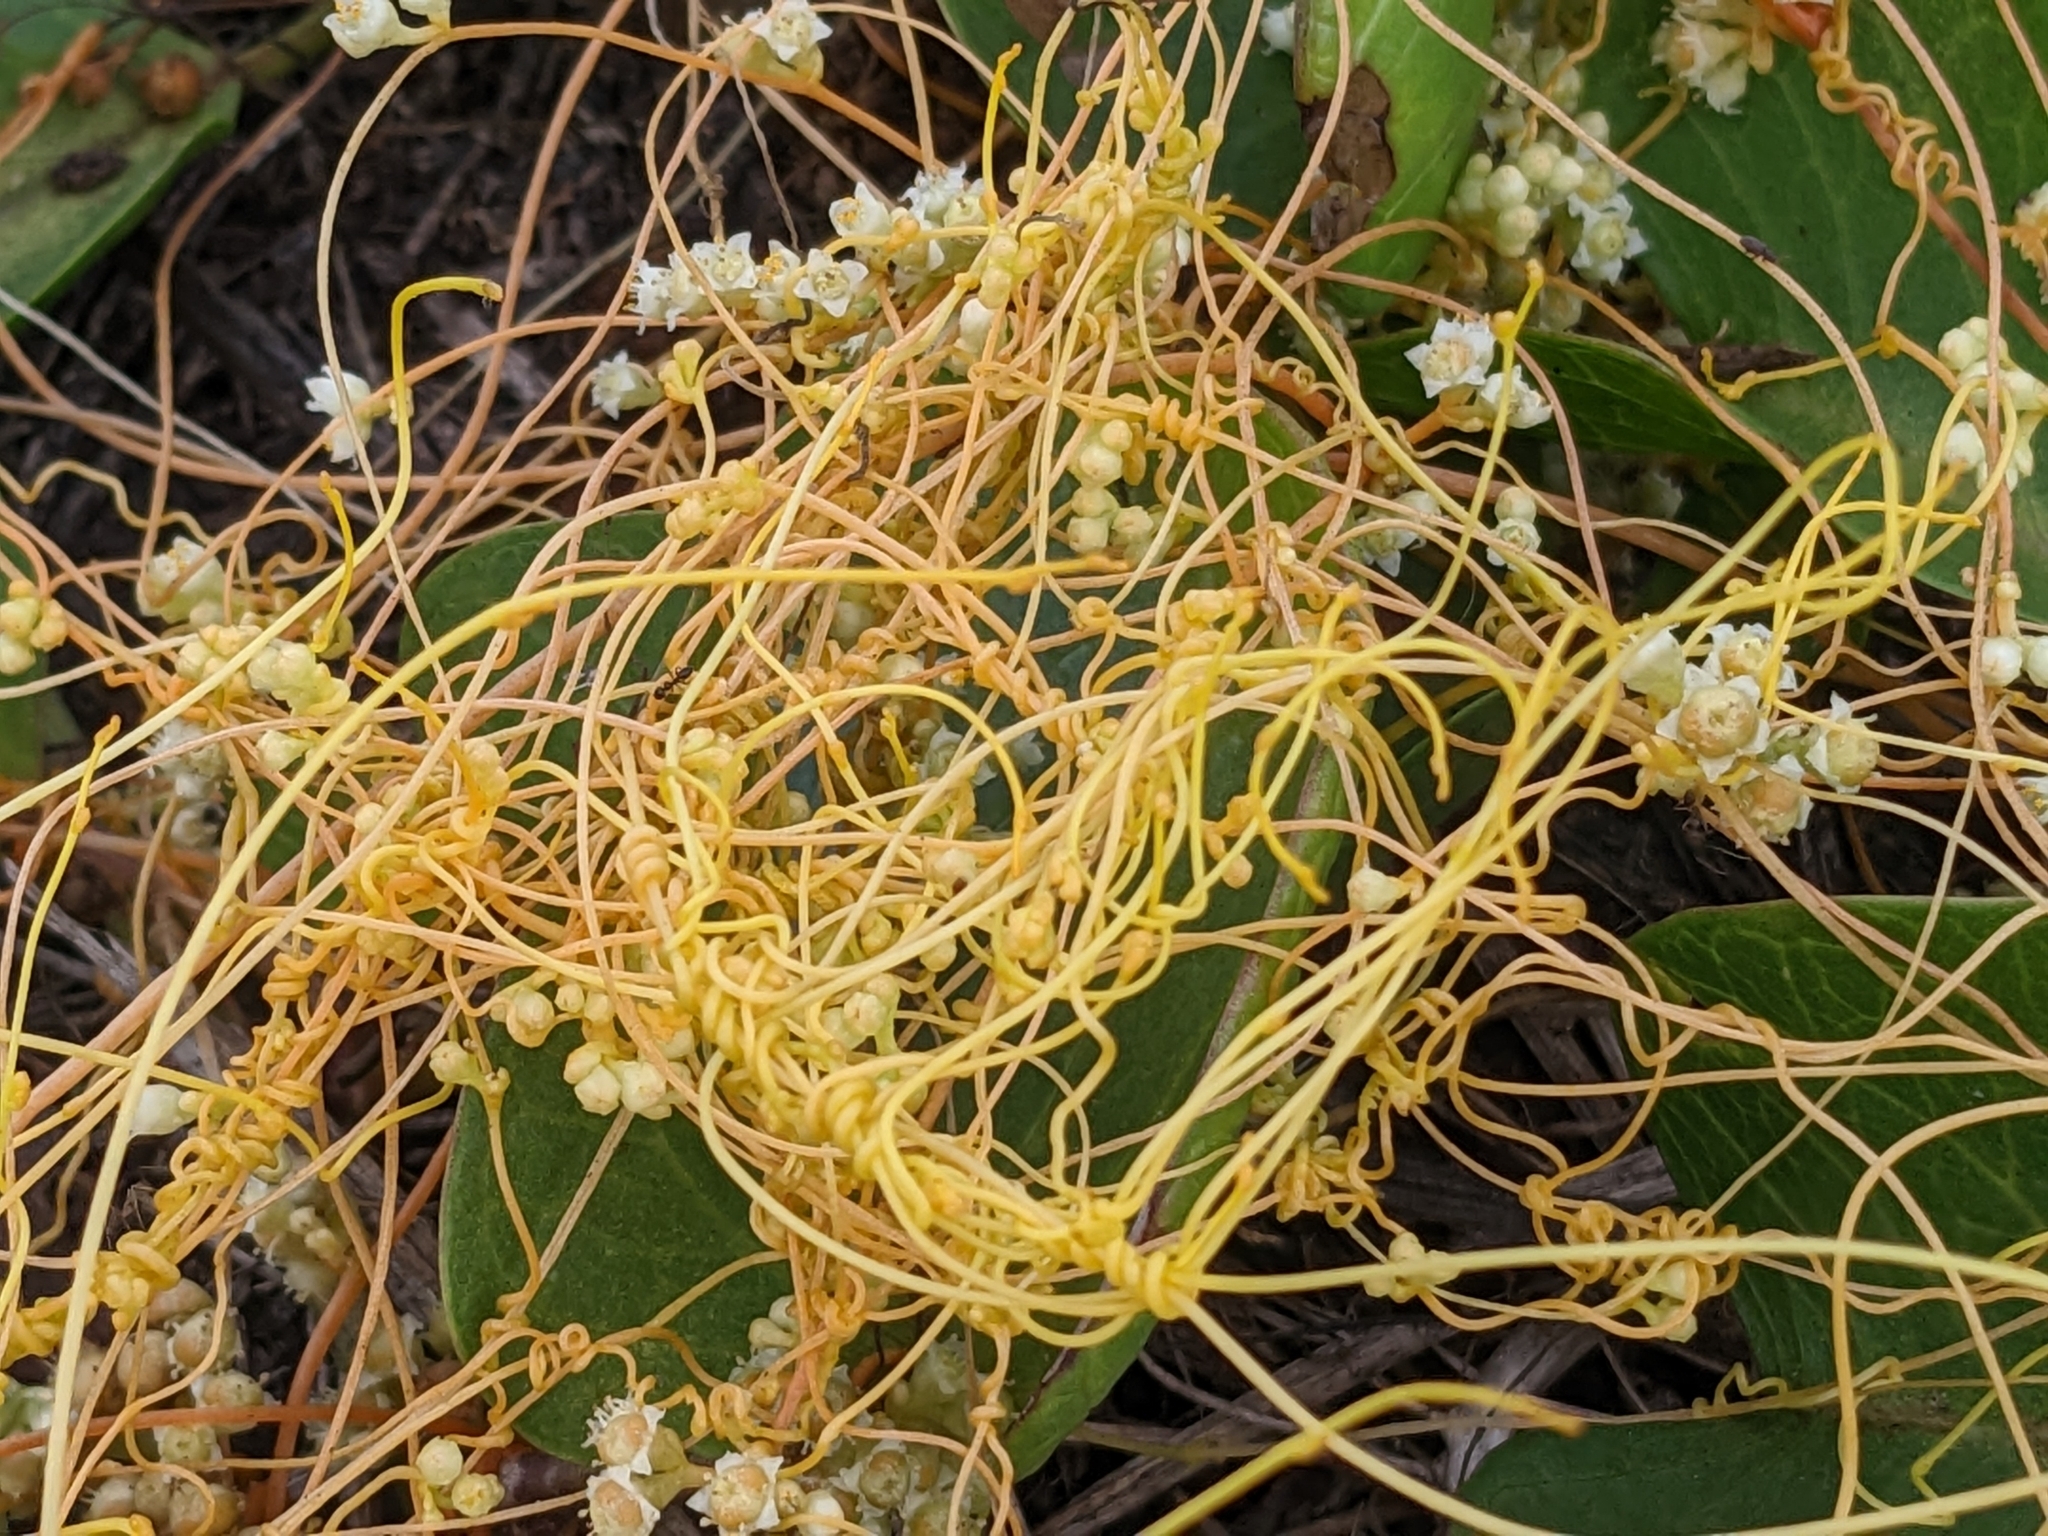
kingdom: Plantae
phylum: Tracheophyta
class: Magnoliopsida
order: Solanales
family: Convolvulaceae
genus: Cuscuta
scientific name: Cuscuta campestris
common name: Yellow dodder
